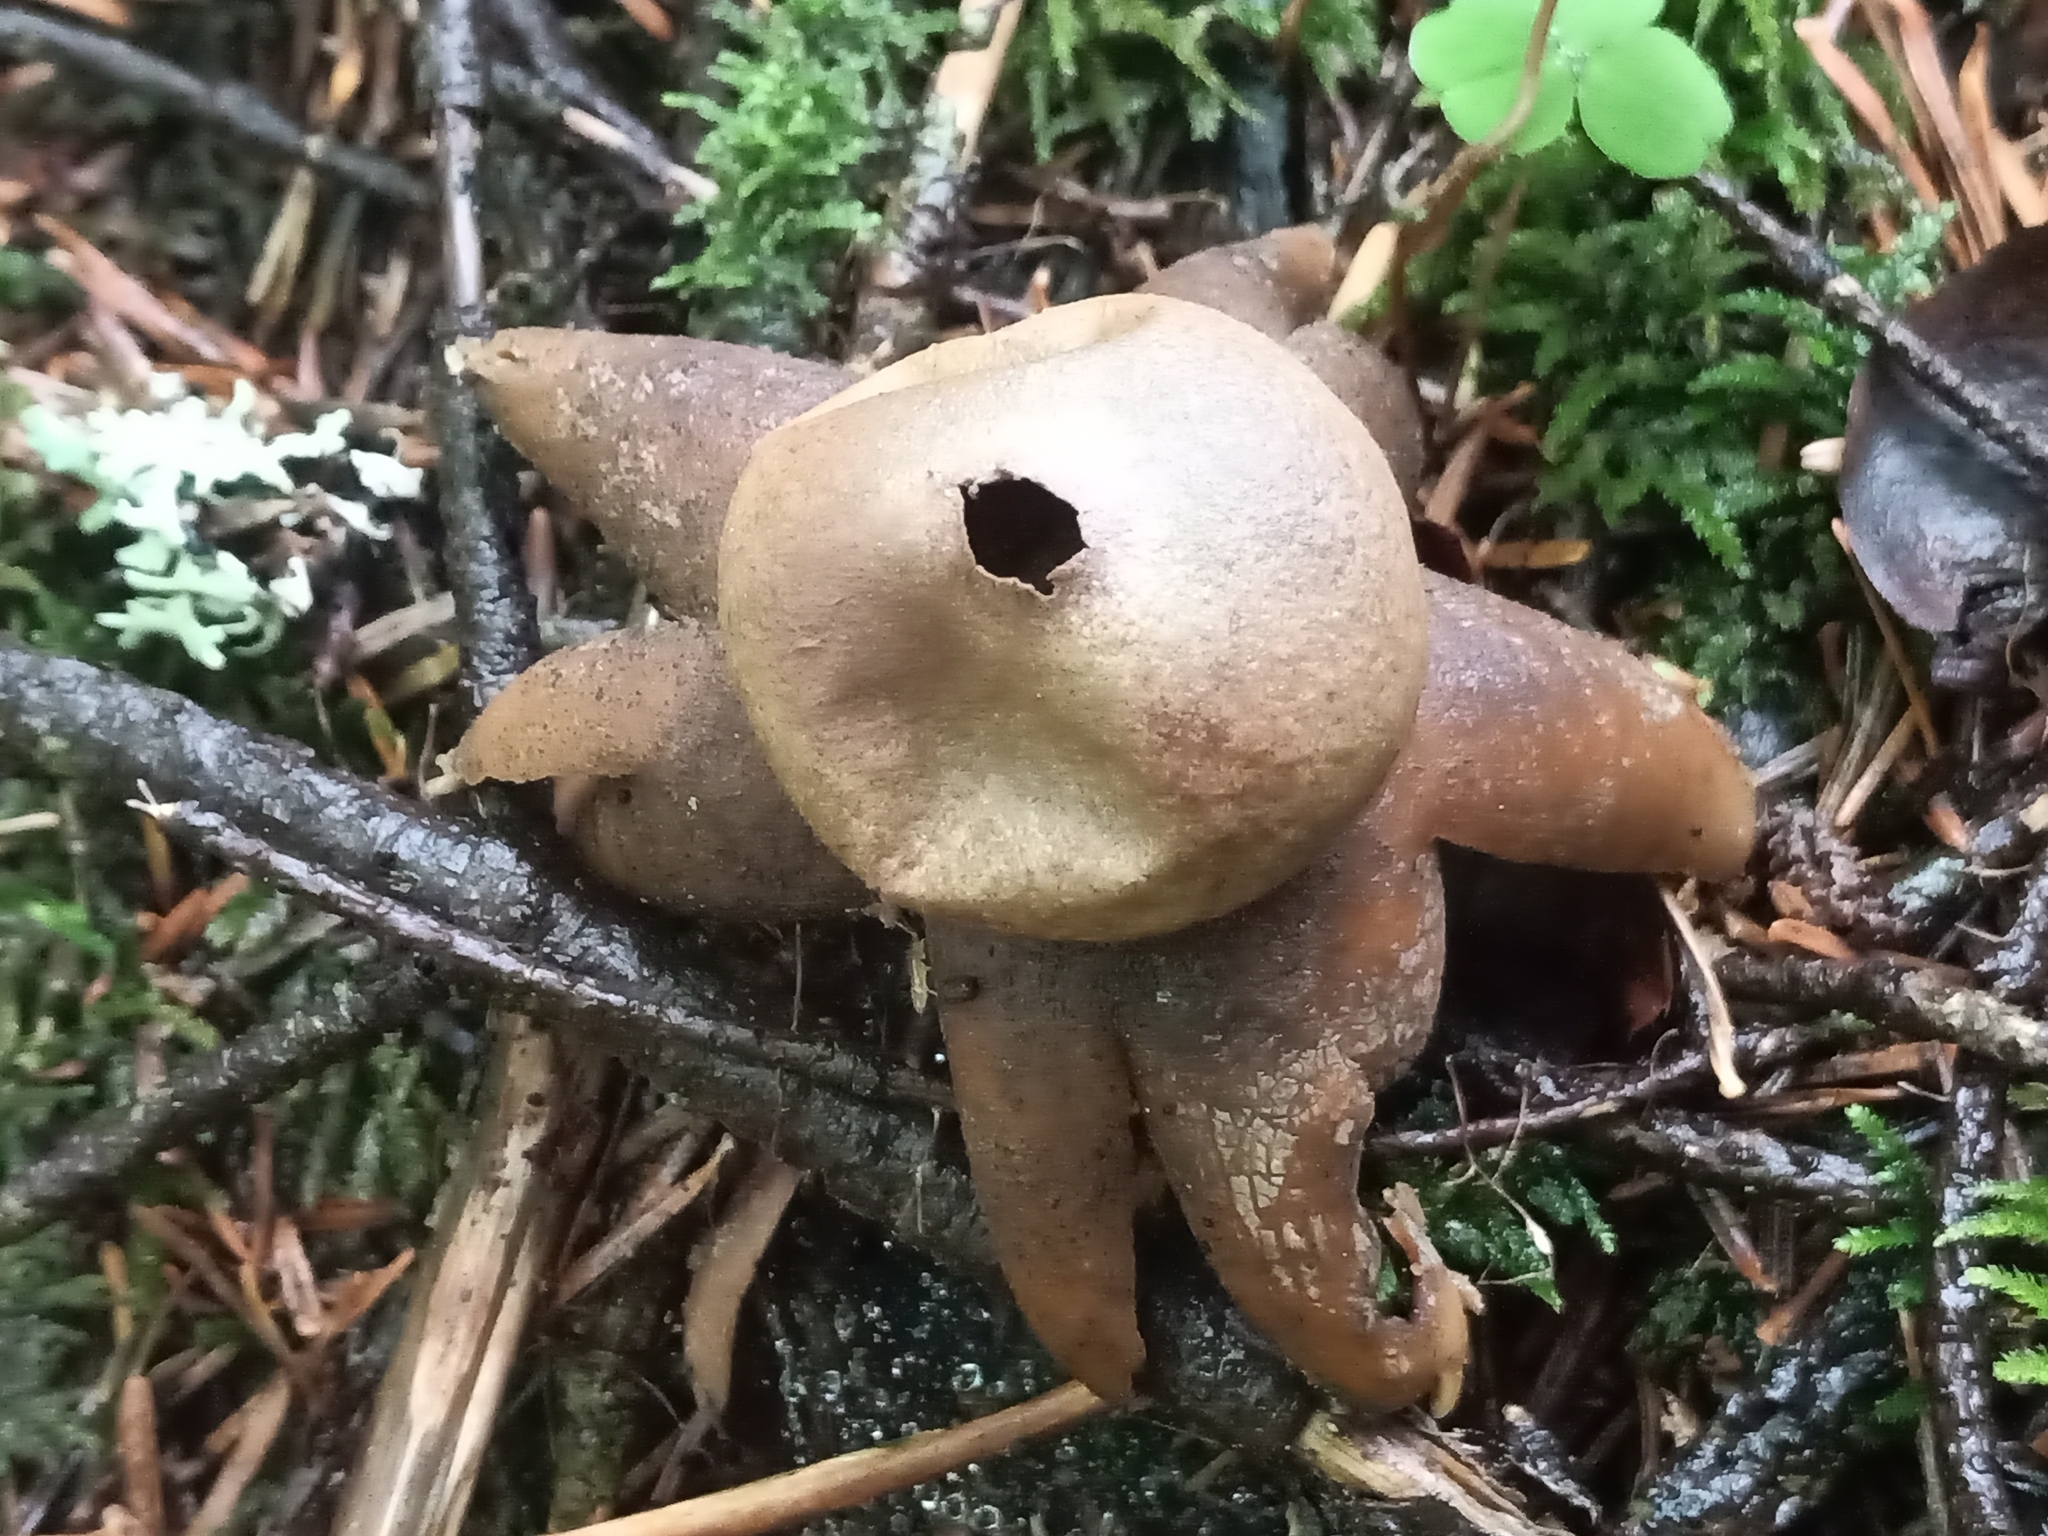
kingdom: Fungi
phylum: Basidiomycota
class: Agaricomycetes
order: Boletales
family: Diplocystidiaceae
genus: Astraeus
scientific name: Astraeus hygrometricus
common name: Barometer earthstar
